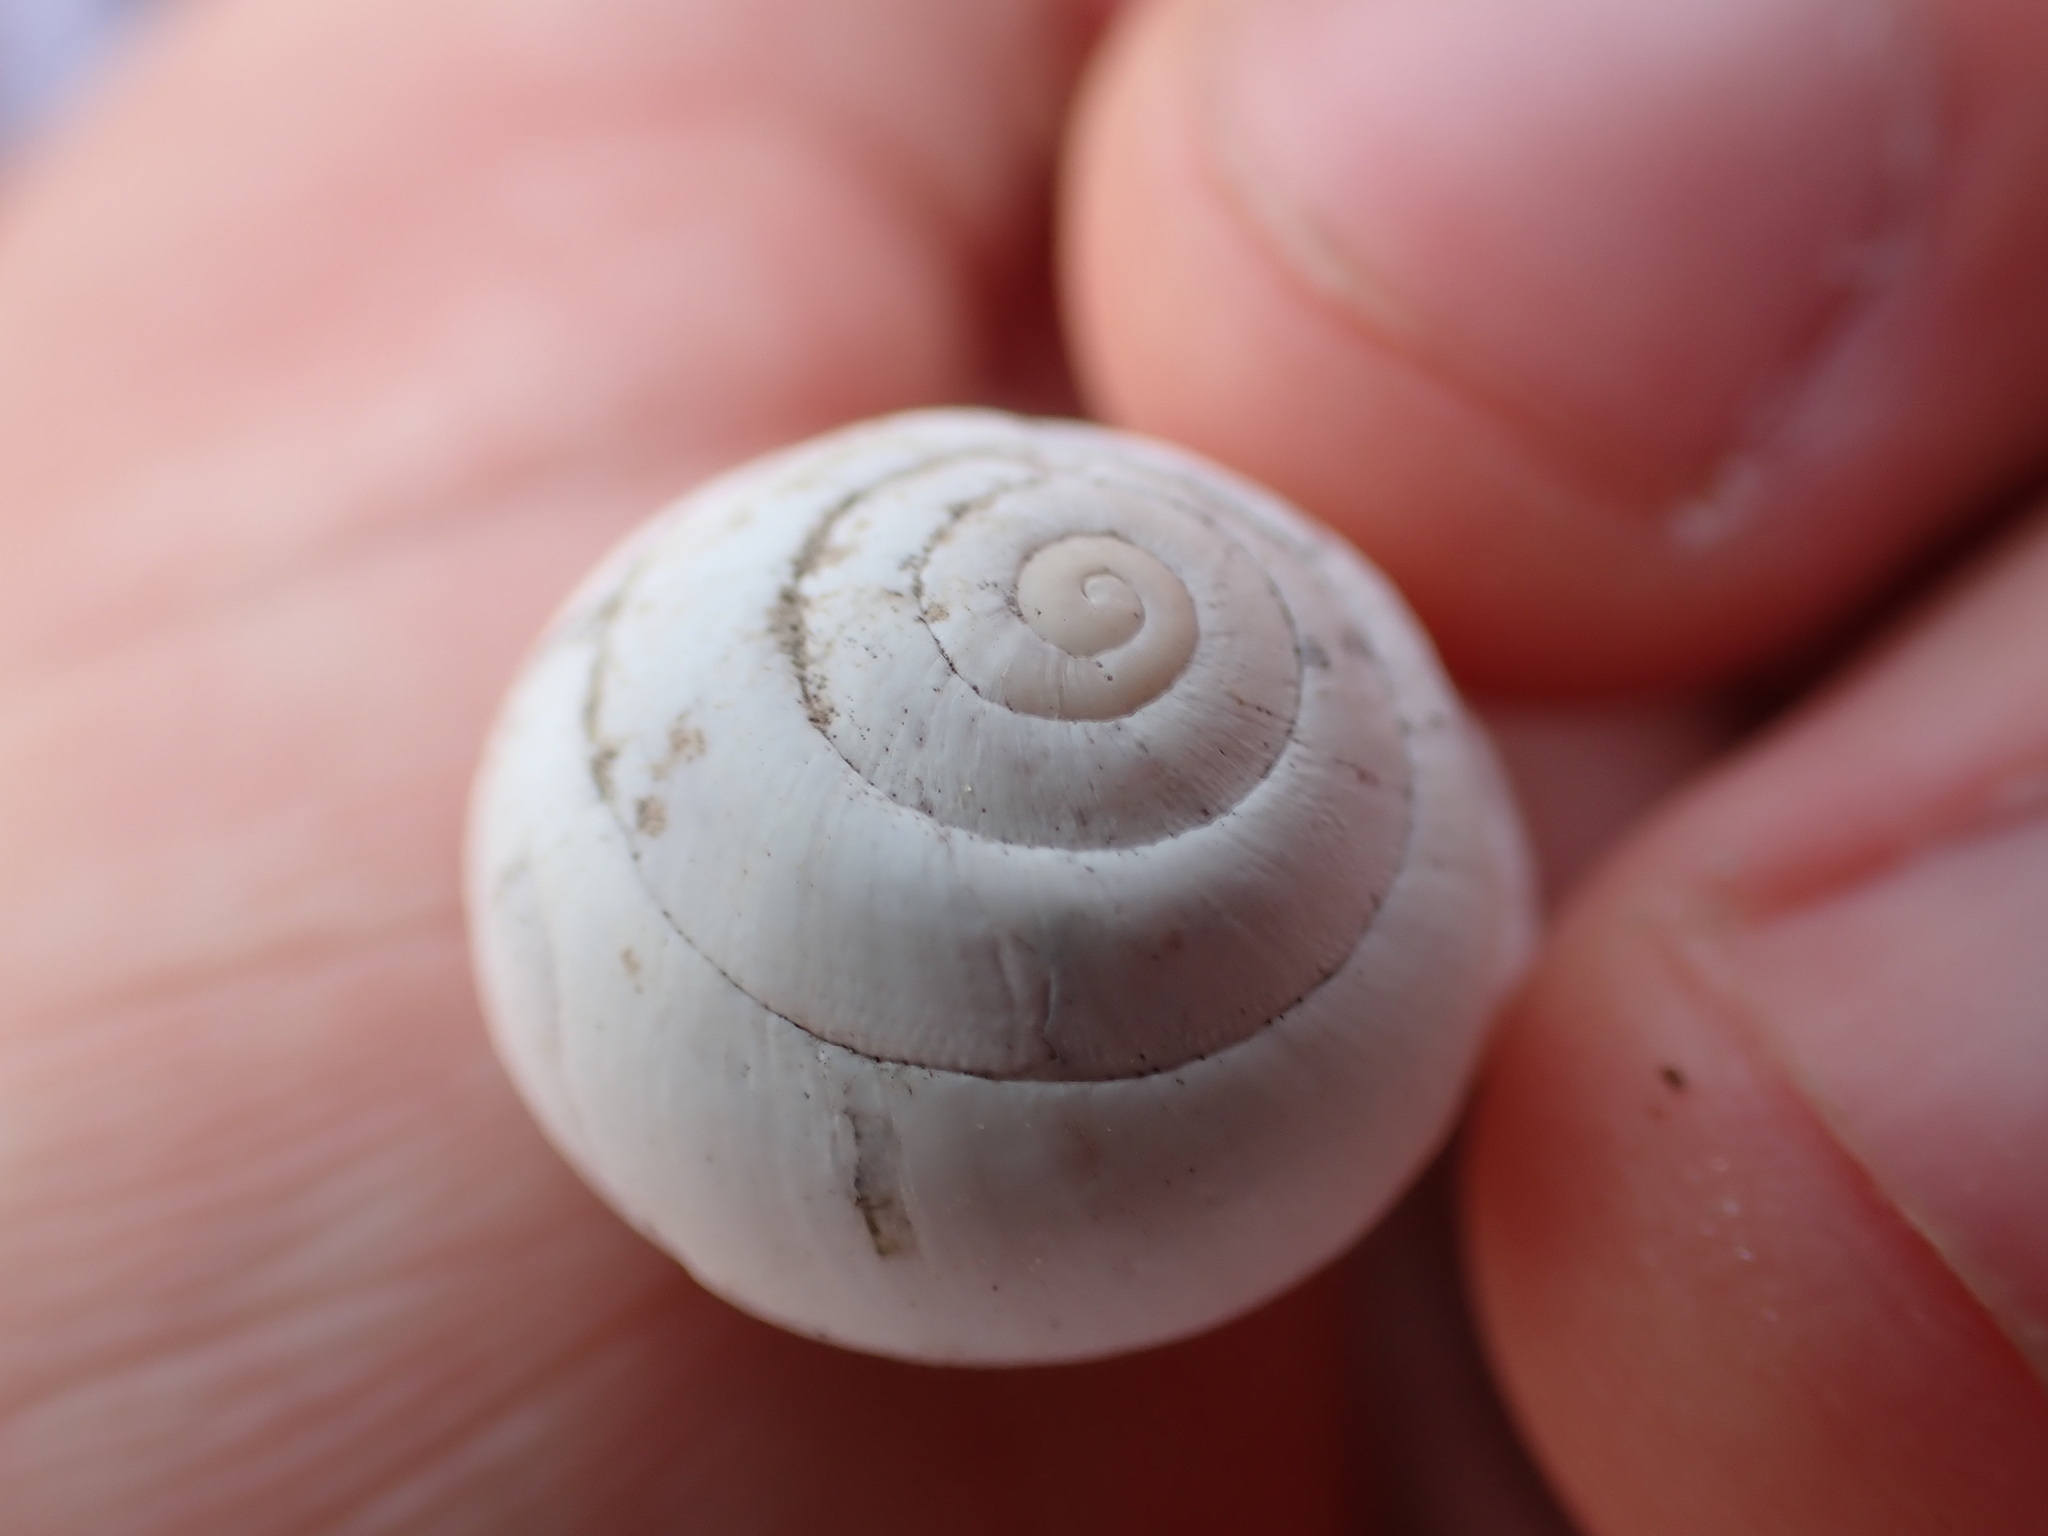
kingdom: Animalia
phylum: Mollusca
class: Gastropoda
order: Stylommatophora
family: Sphincterochilidae
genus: Sphincterochila
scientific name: Sphincterochila candidissima
